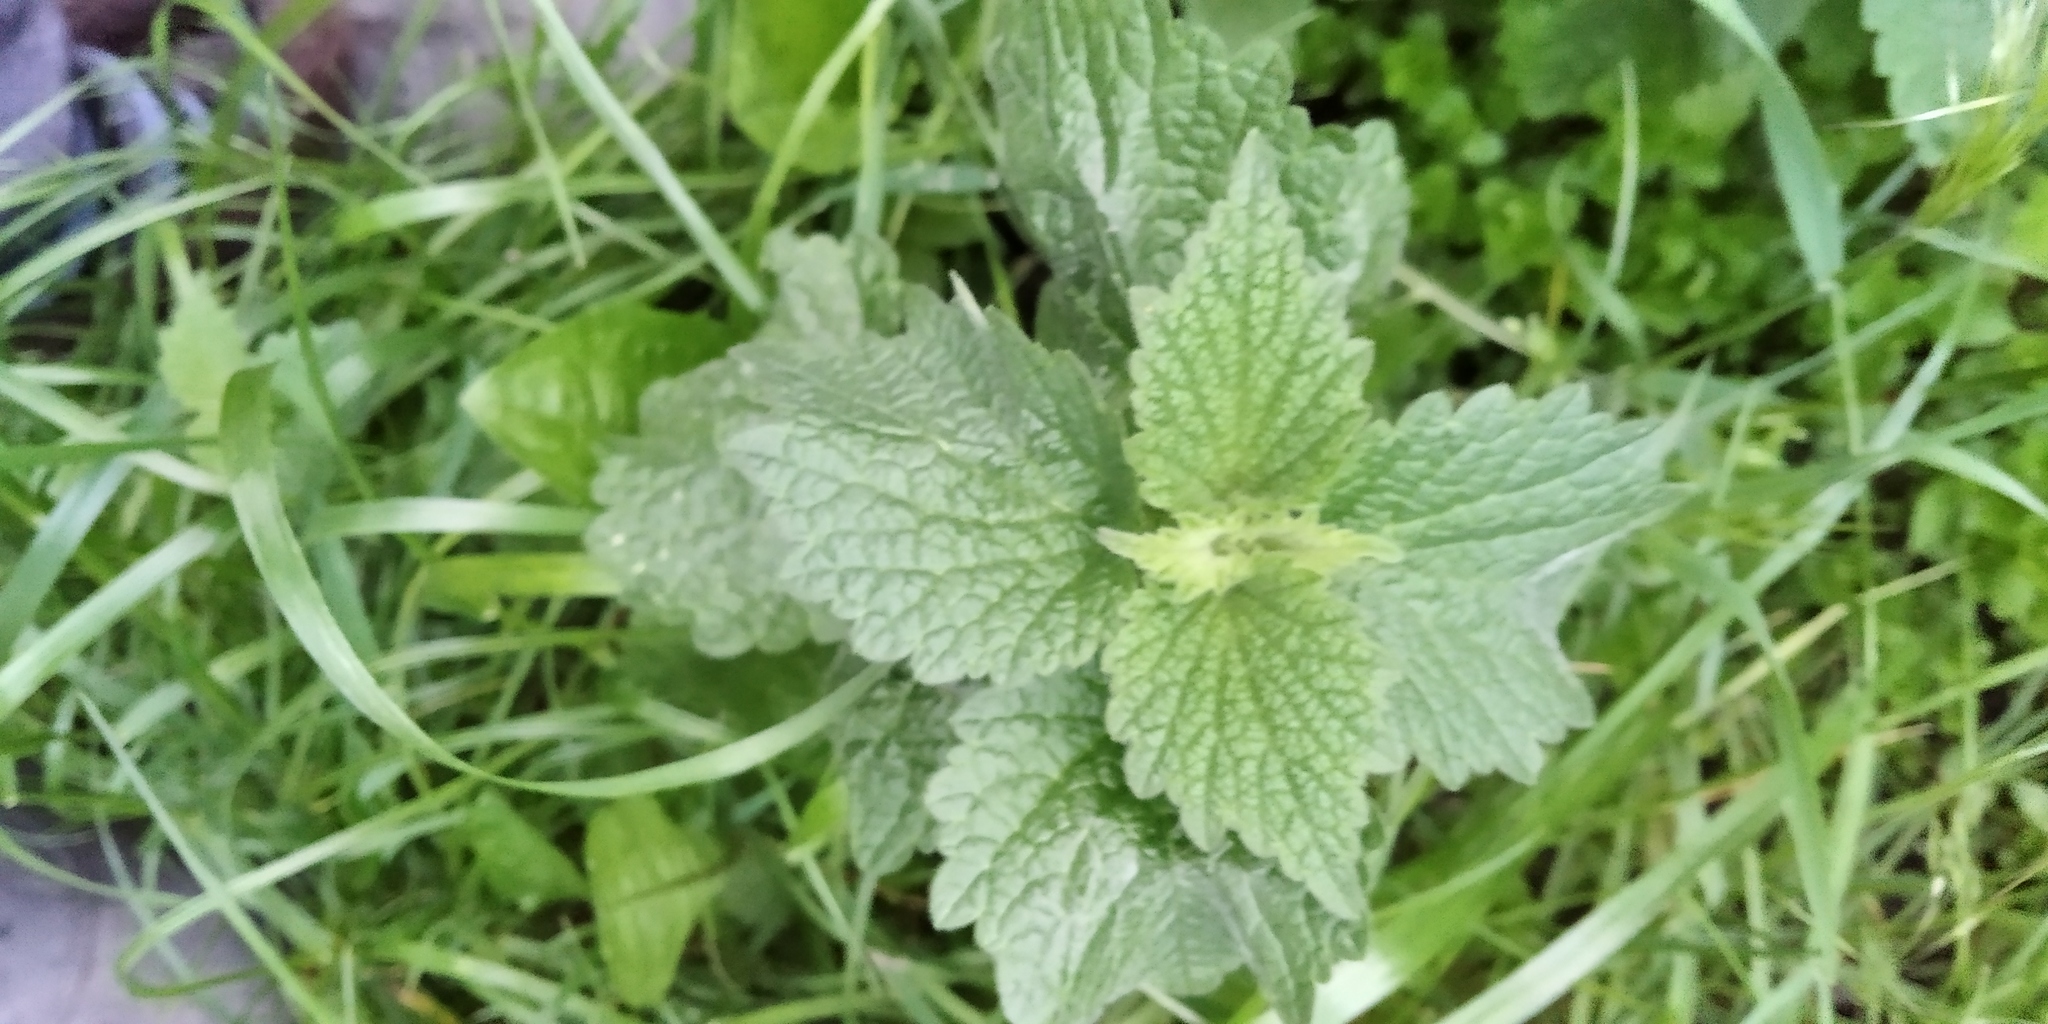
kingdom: Plantae
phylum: Tracheophyta
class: Magnoliopsida
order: Lamiales
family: Lamiaceae
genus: Ballota
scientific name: Ballota nigra
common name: Black horehound
